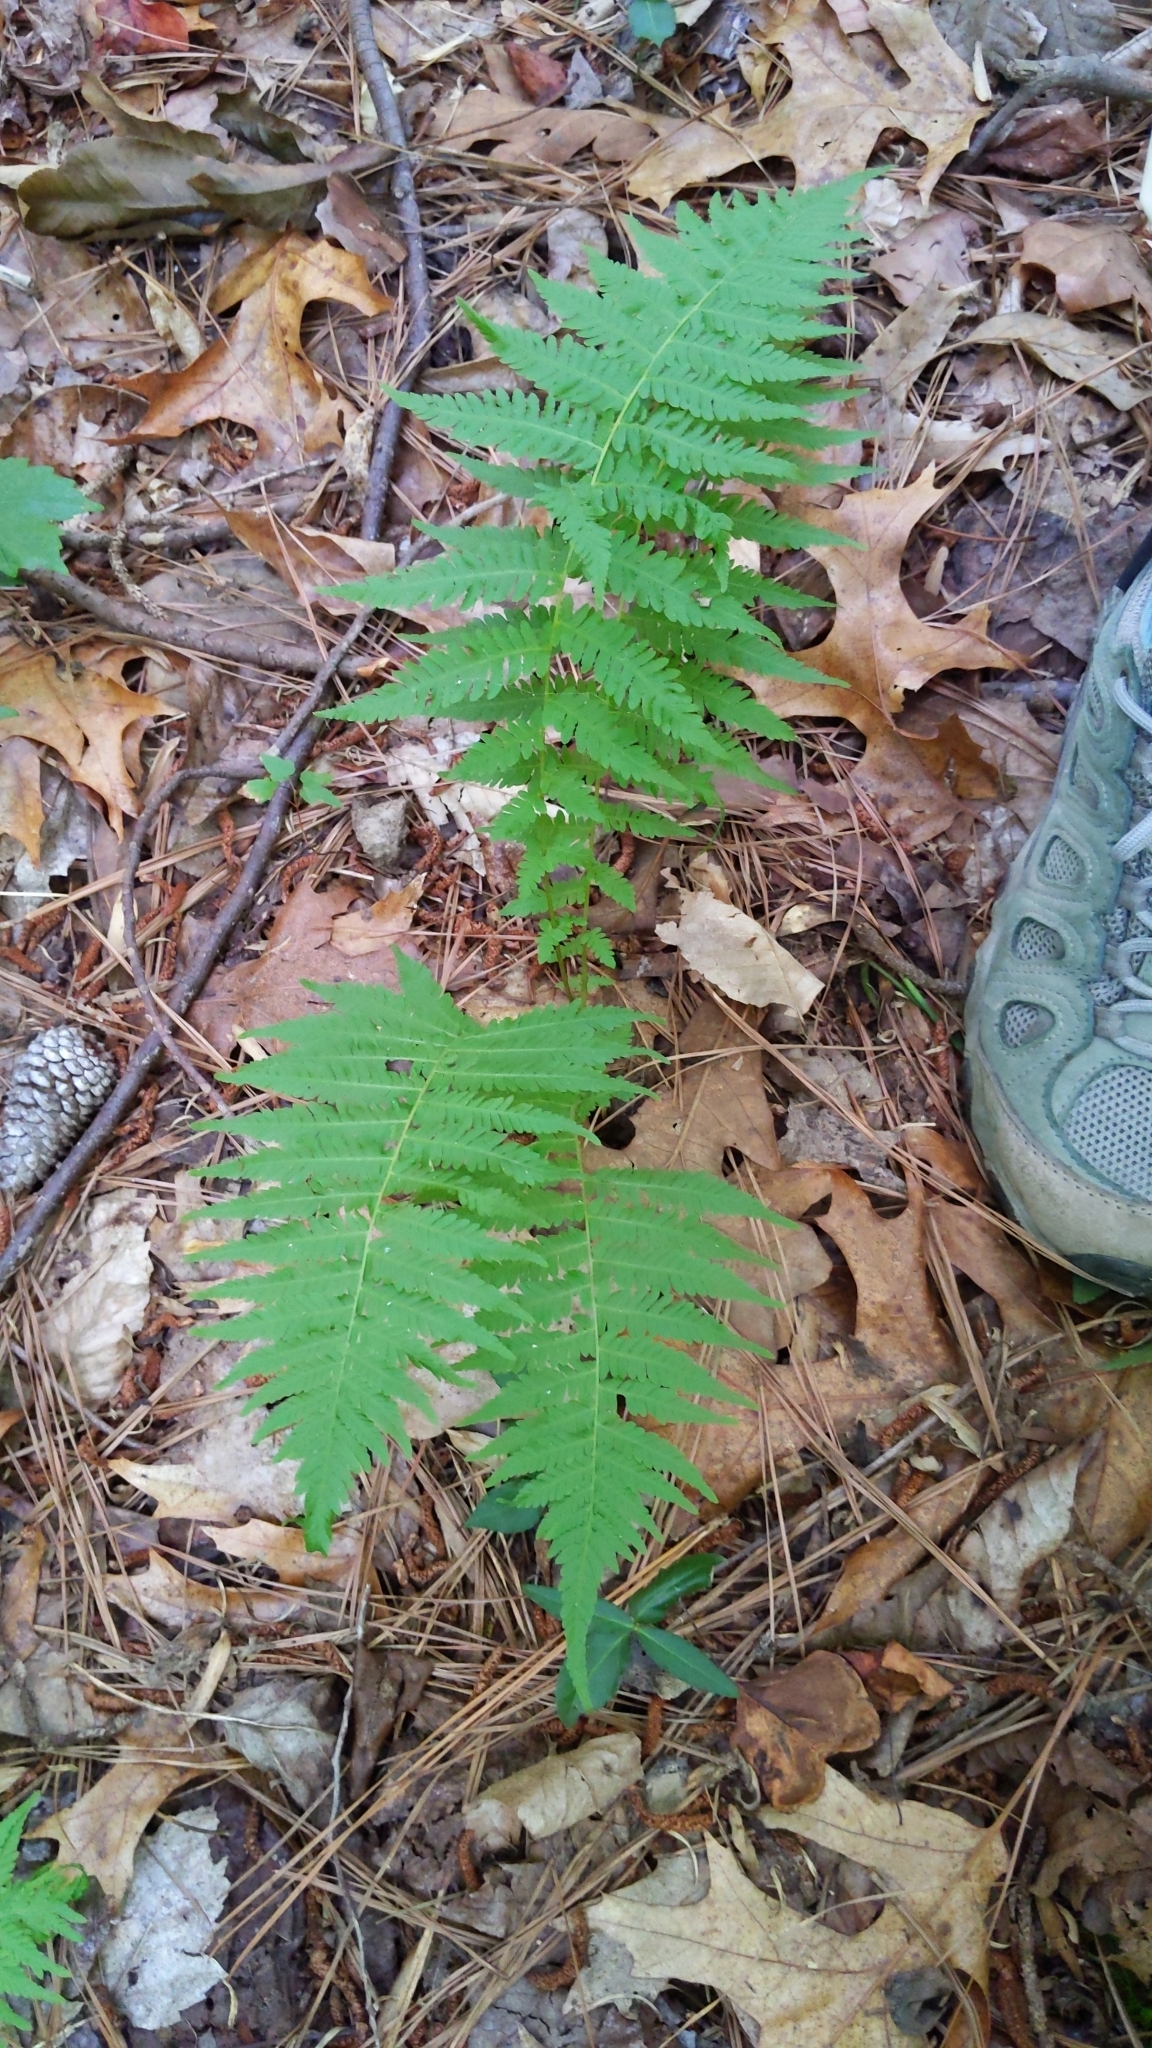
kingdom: Plantae
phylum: Tracheophyta
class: Polypodiopsida
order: Polypodiales
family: Thelypteridaceae
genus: Amauropelta
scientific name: Amauropelta noveboracensis
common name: New york fern
